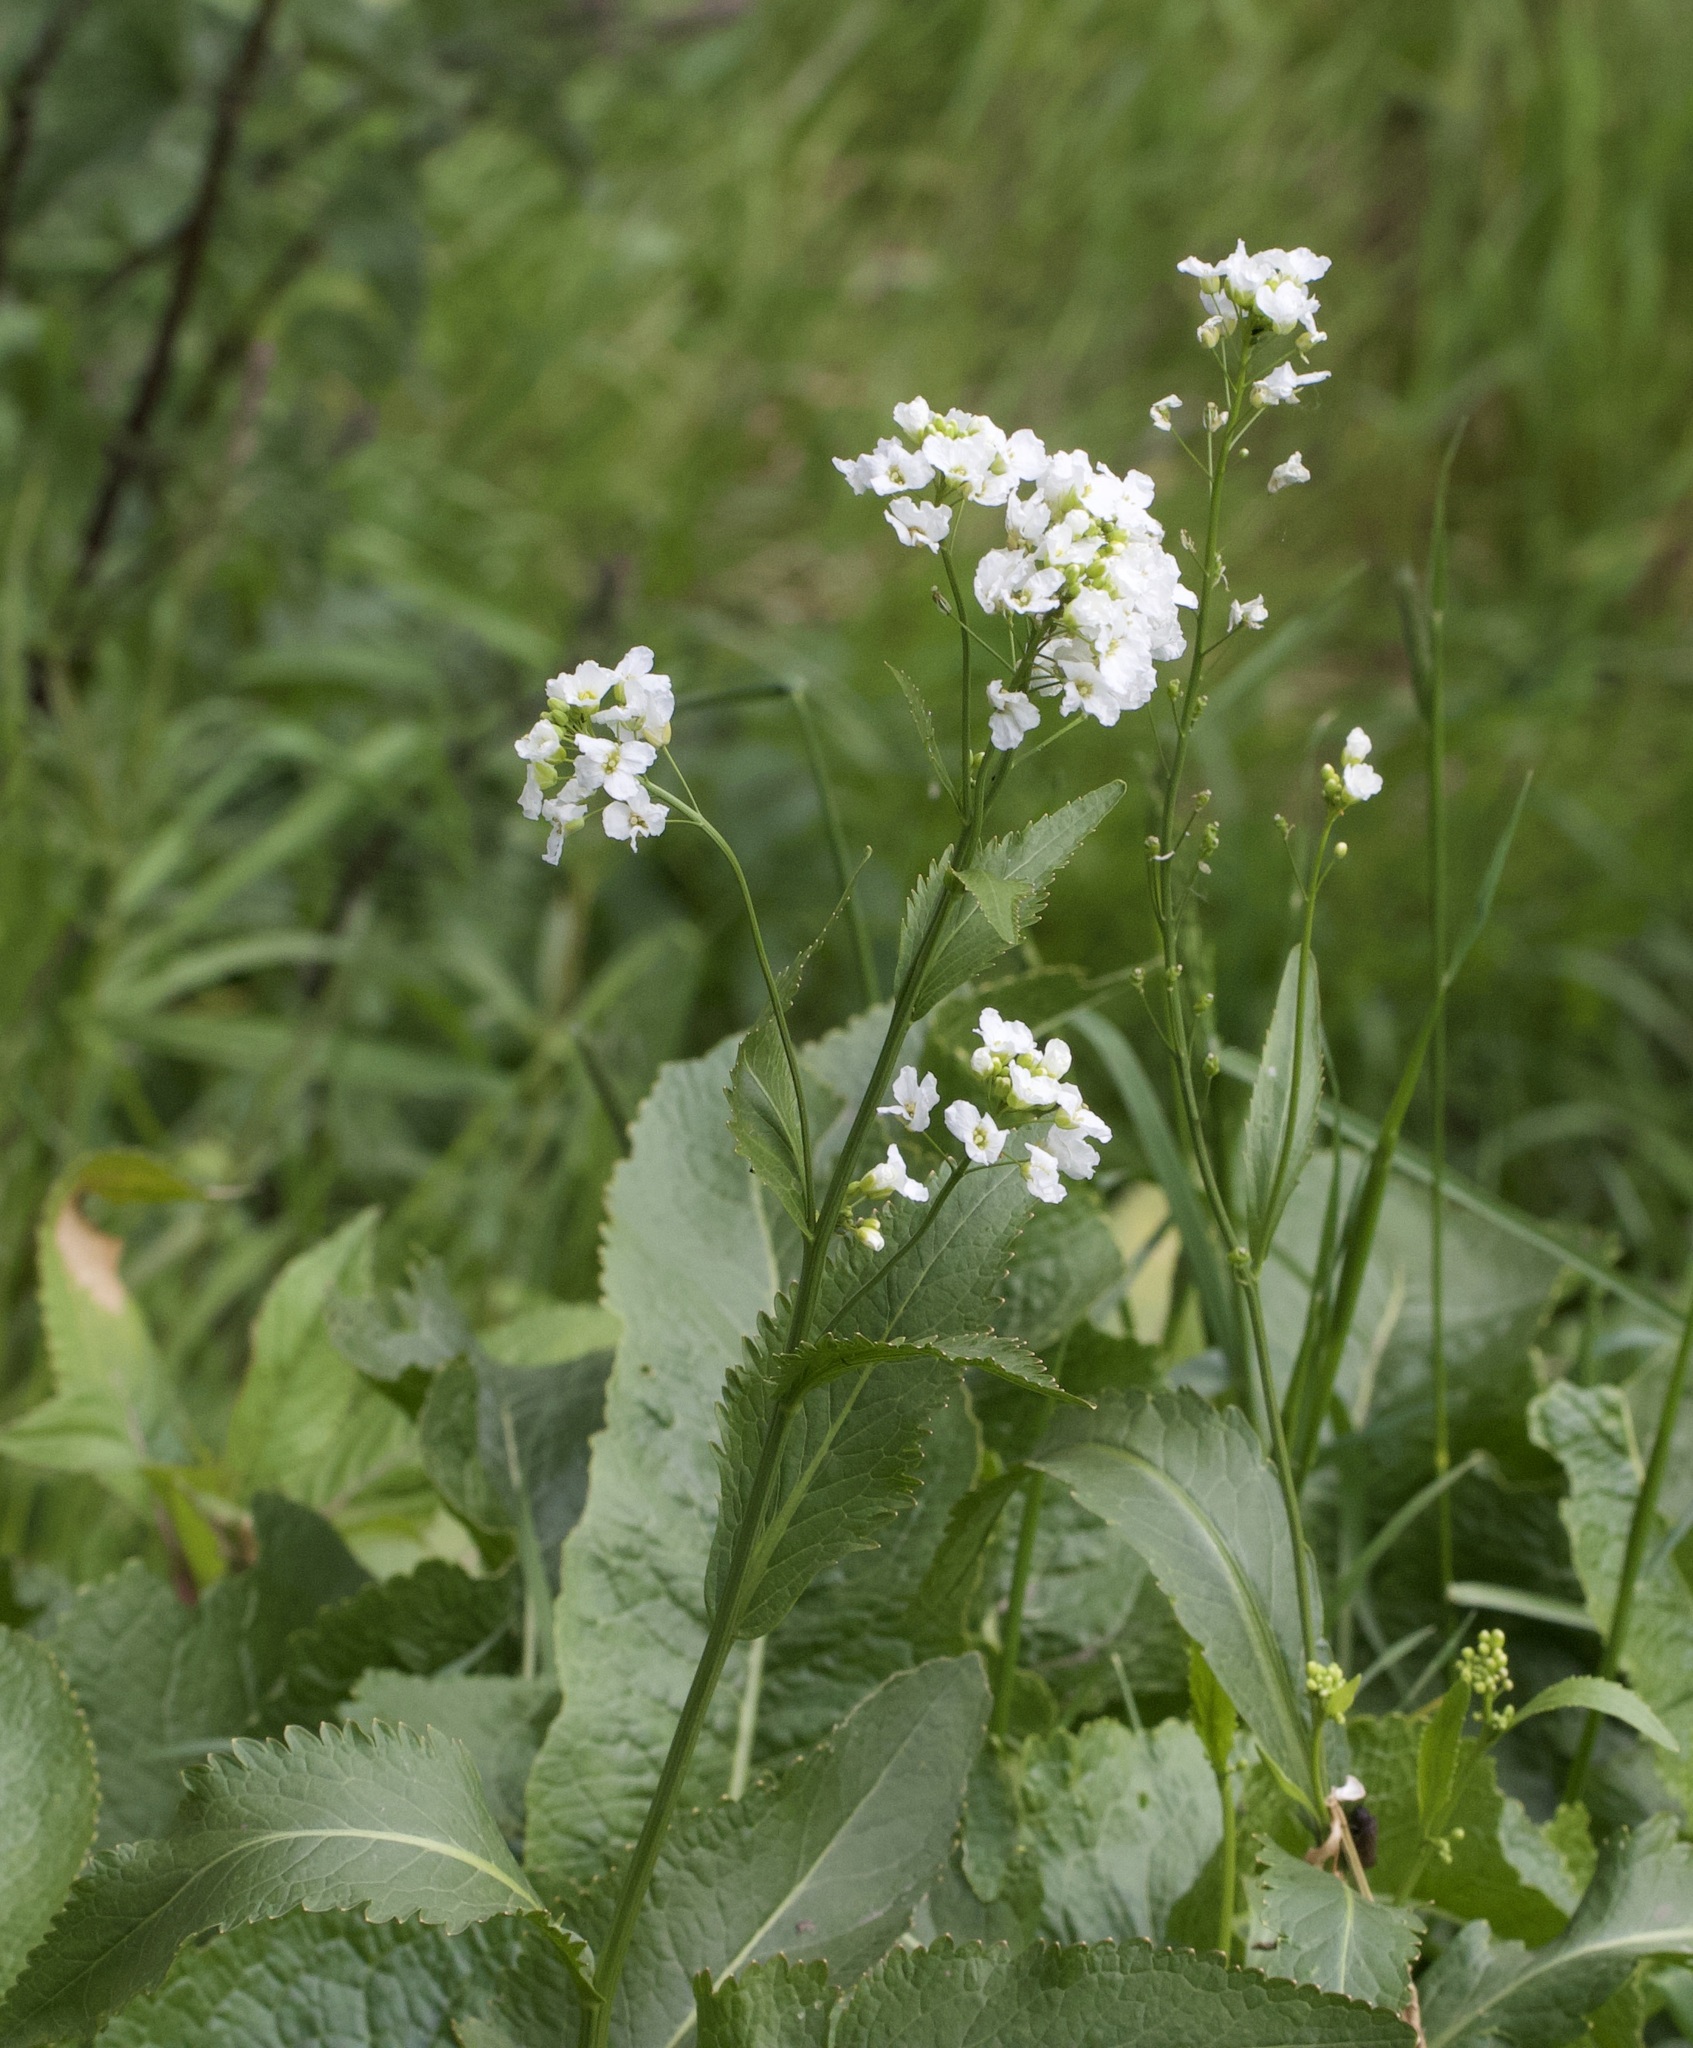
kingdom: Plantae
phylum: Tracheophyta
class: Magnoliopsida
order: Brassicales
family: Brassicaceae
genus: Armoracia
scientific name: Armoracia rusticana
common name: Horseradish
